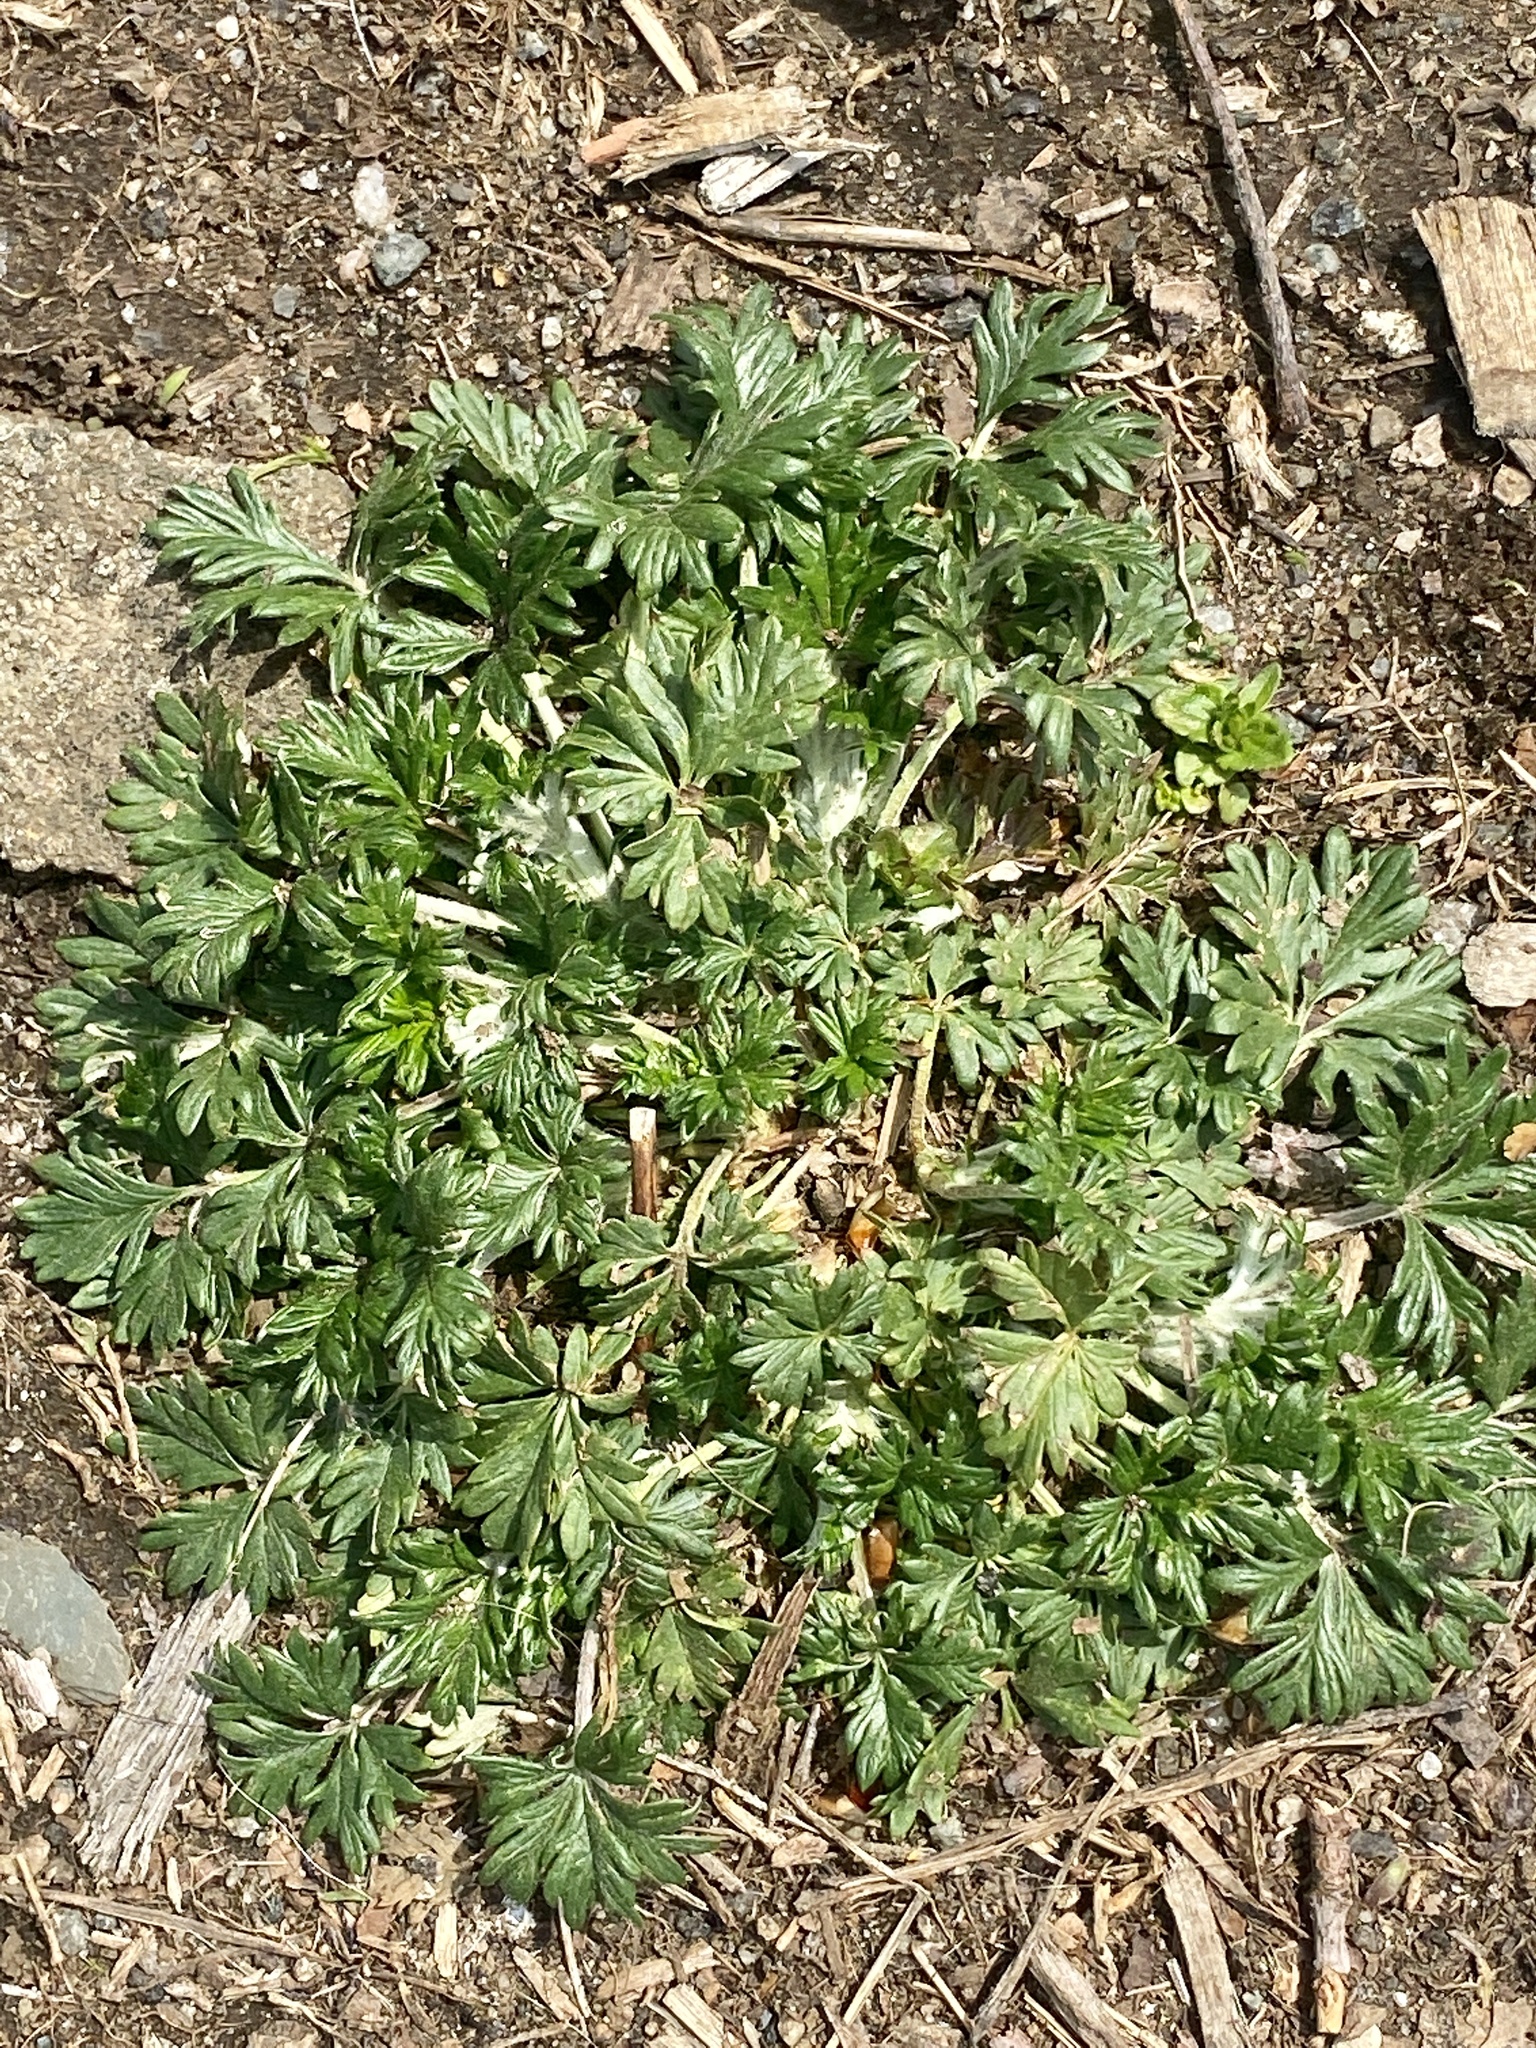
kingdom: Plantae
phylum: Tracheophyta
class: Magnoliopsida
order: Rosales
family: Rosaceae
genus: Potentilla
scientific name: Potentilla argentea
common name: Hoary cinquefoil
